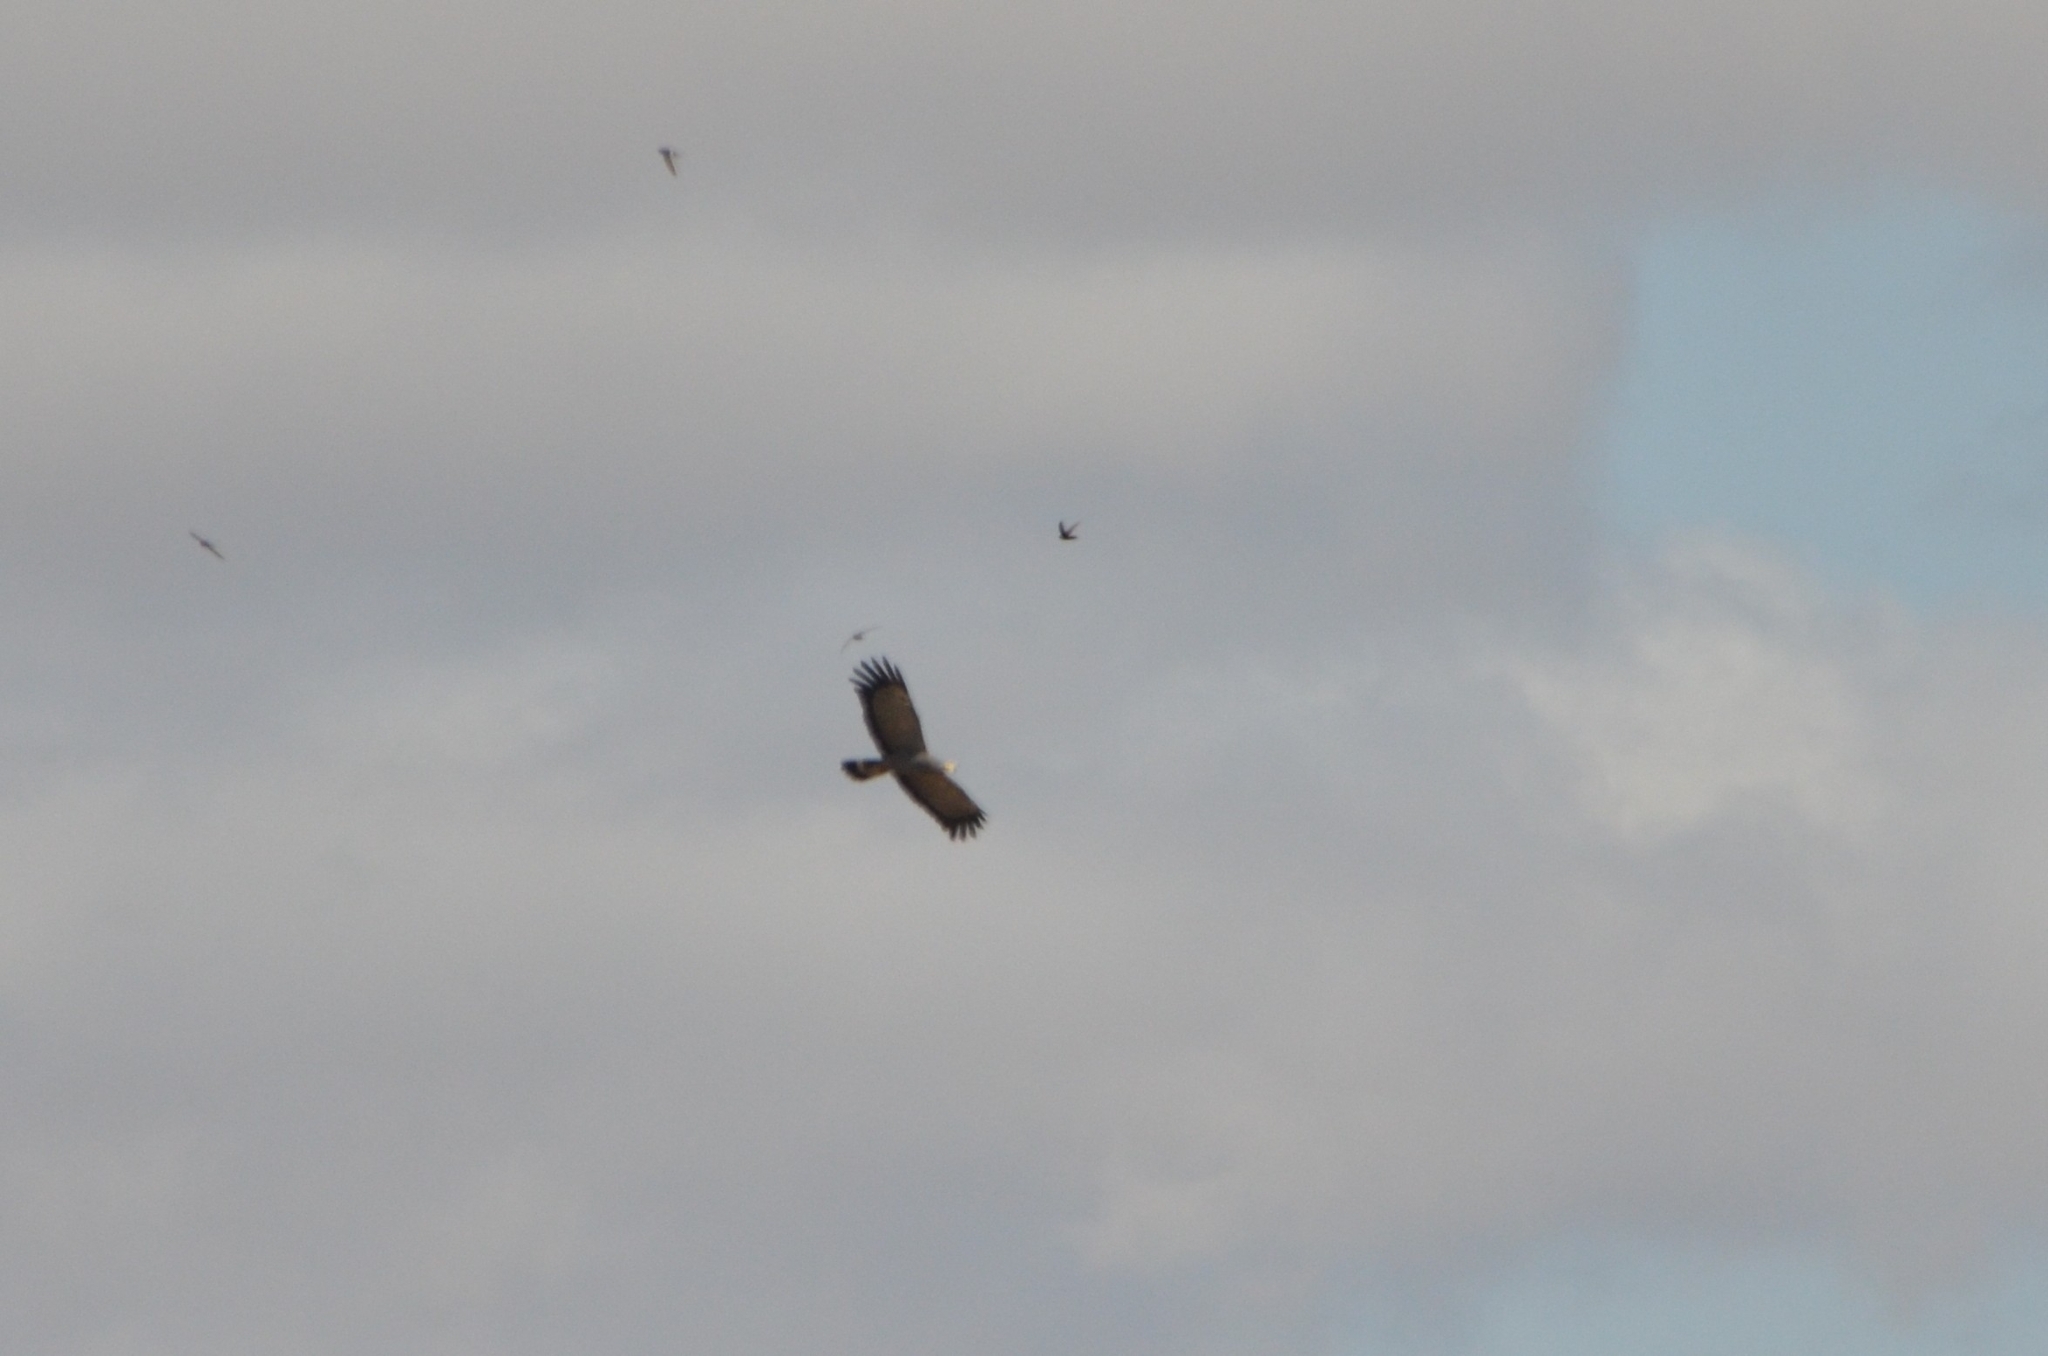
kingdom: Animalia
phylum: Chordata
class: Aves
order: Accipitriformes
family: Accipitridae
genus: Polyboroides
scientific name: Polyboroides typus
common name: African harrier-hawk
